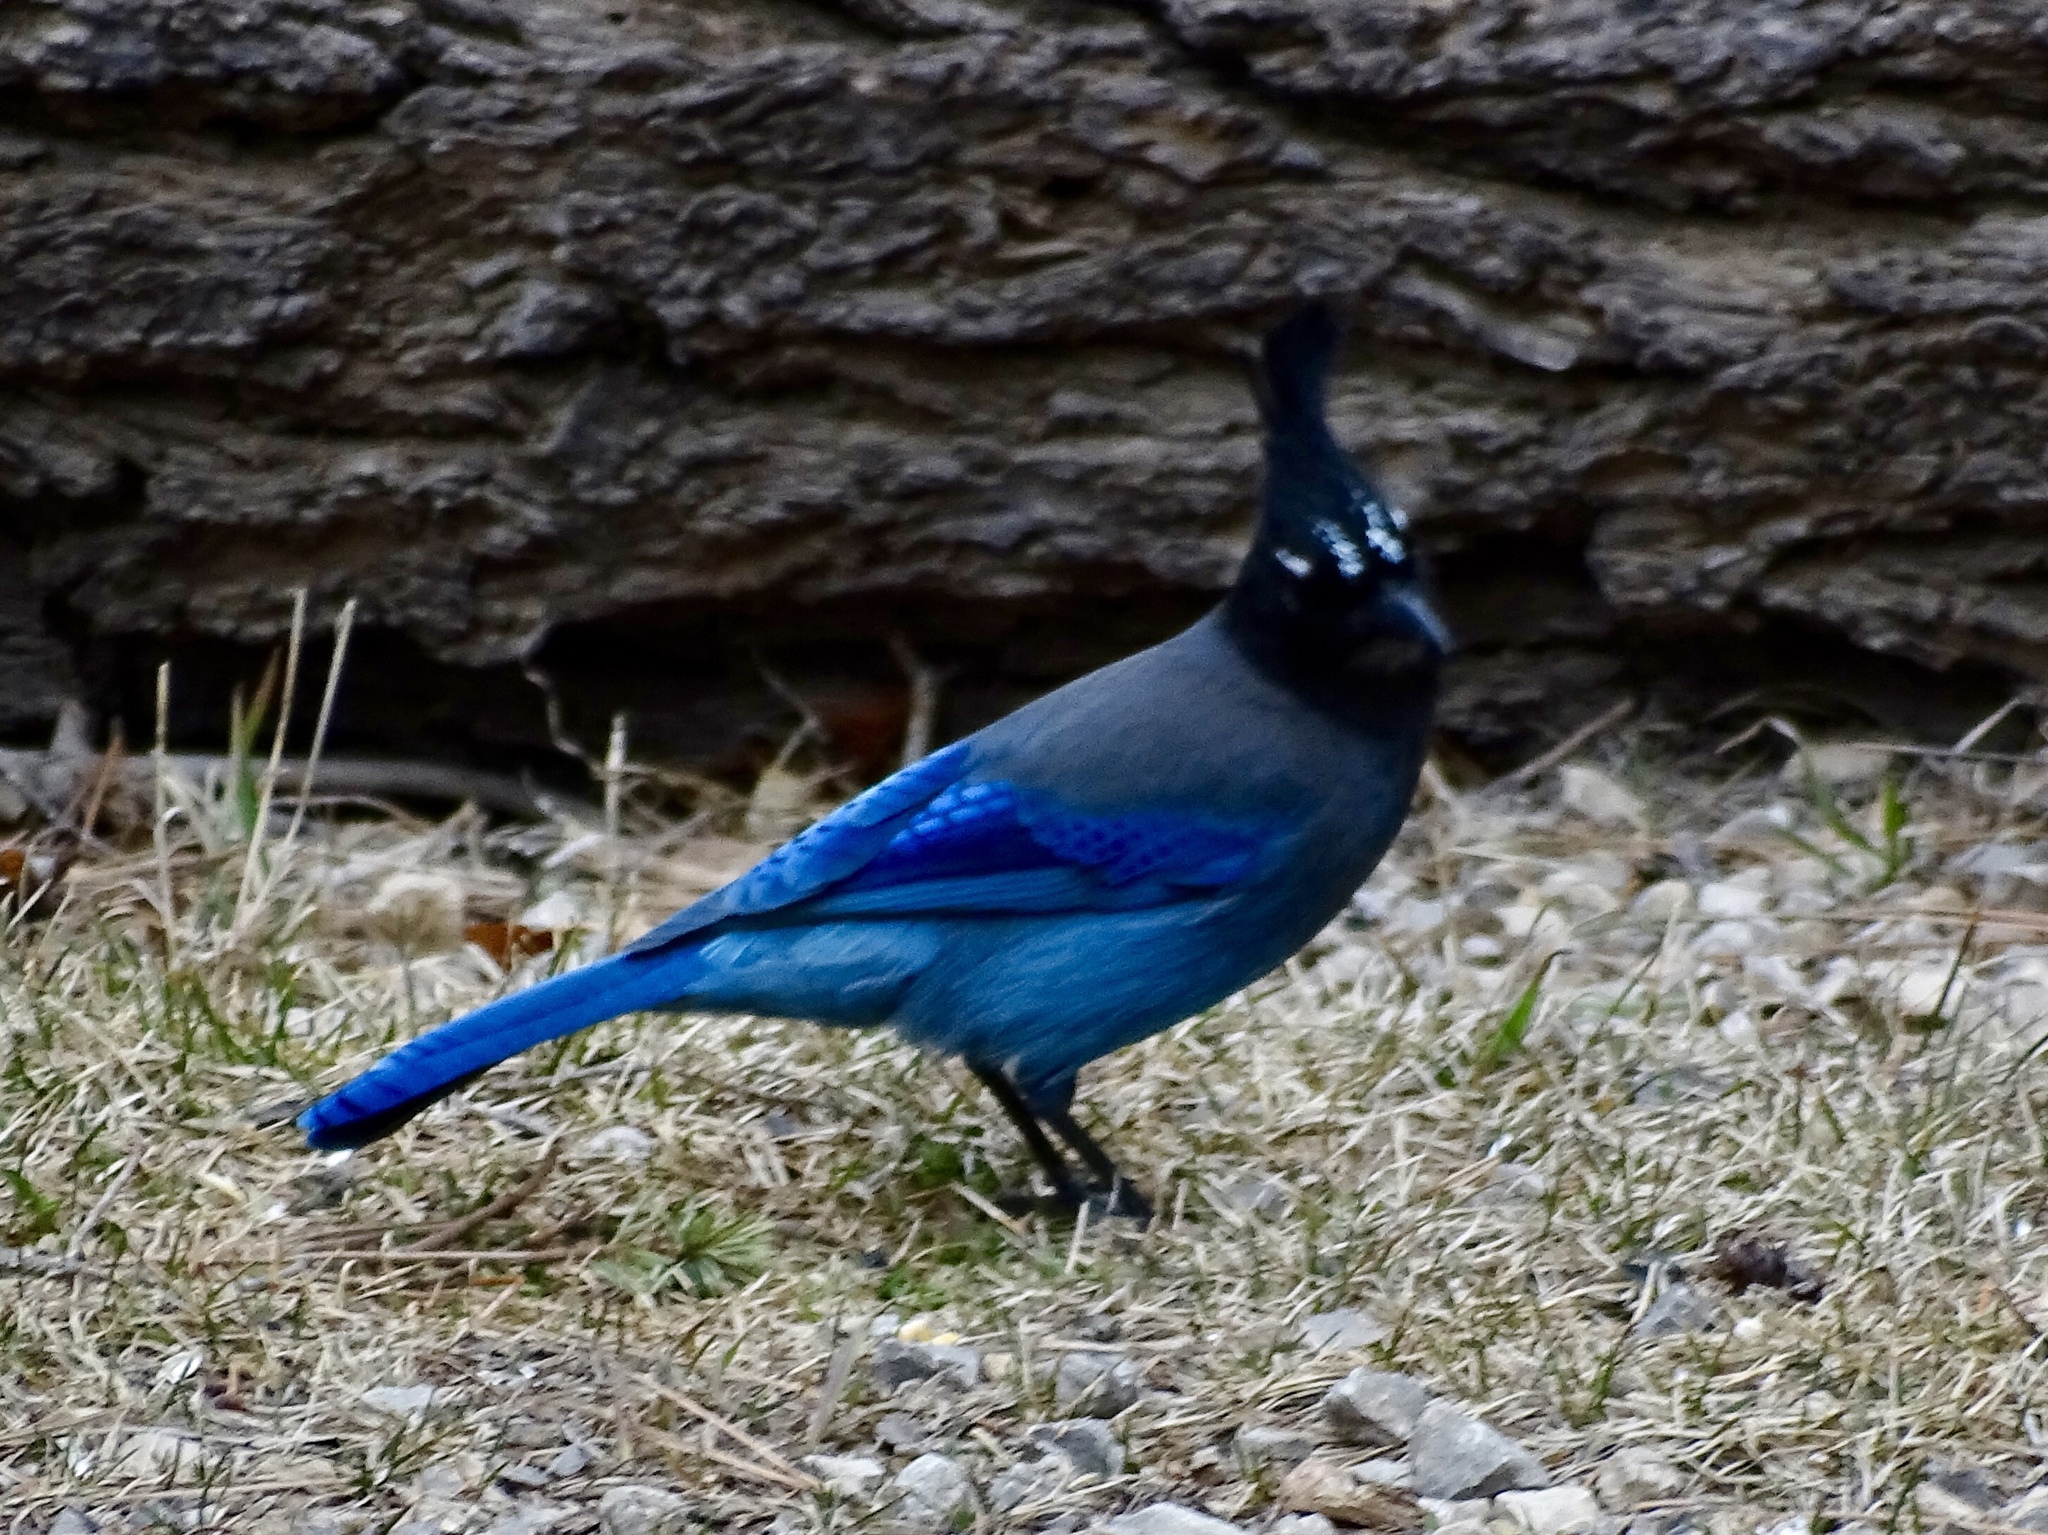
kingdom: Animalia
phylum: Chordata
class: Aves
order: Passeriformes
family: Corvidae
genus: Cyanocitta
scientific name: Cyanocitta stelleri
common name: Steller's jay
